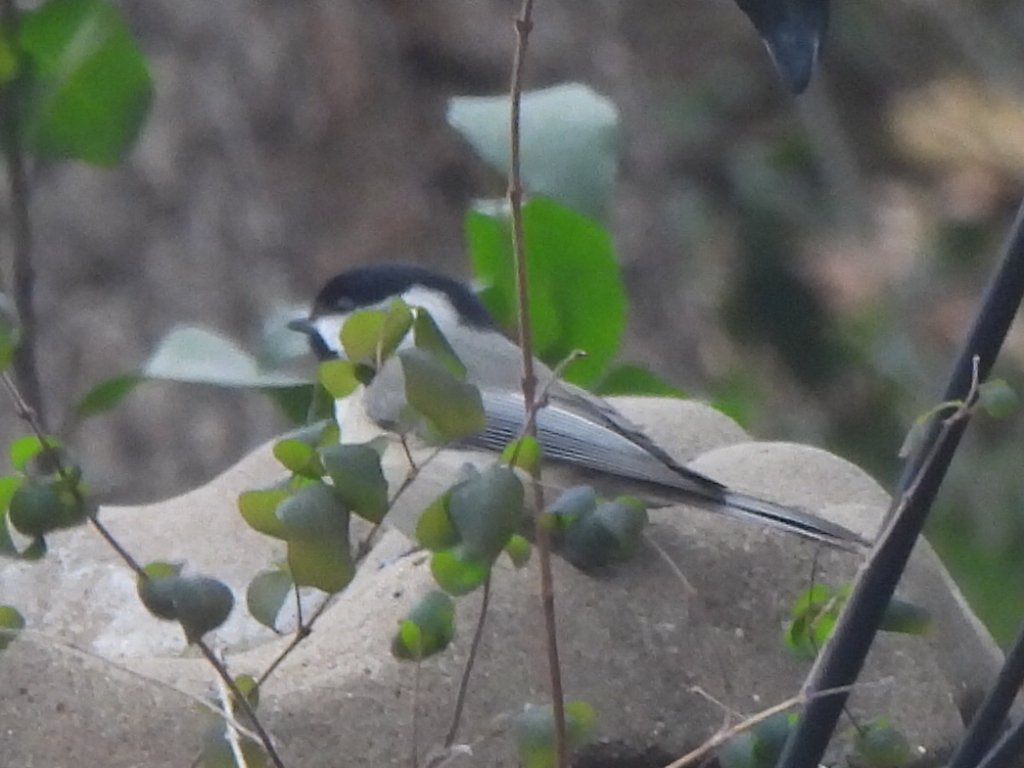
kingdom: Animalia
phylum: Chordata
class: Aves
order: Passeriformes
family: Paridae
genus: Poecile
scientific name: Poecile carolinensis
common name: Carolina chickadee
